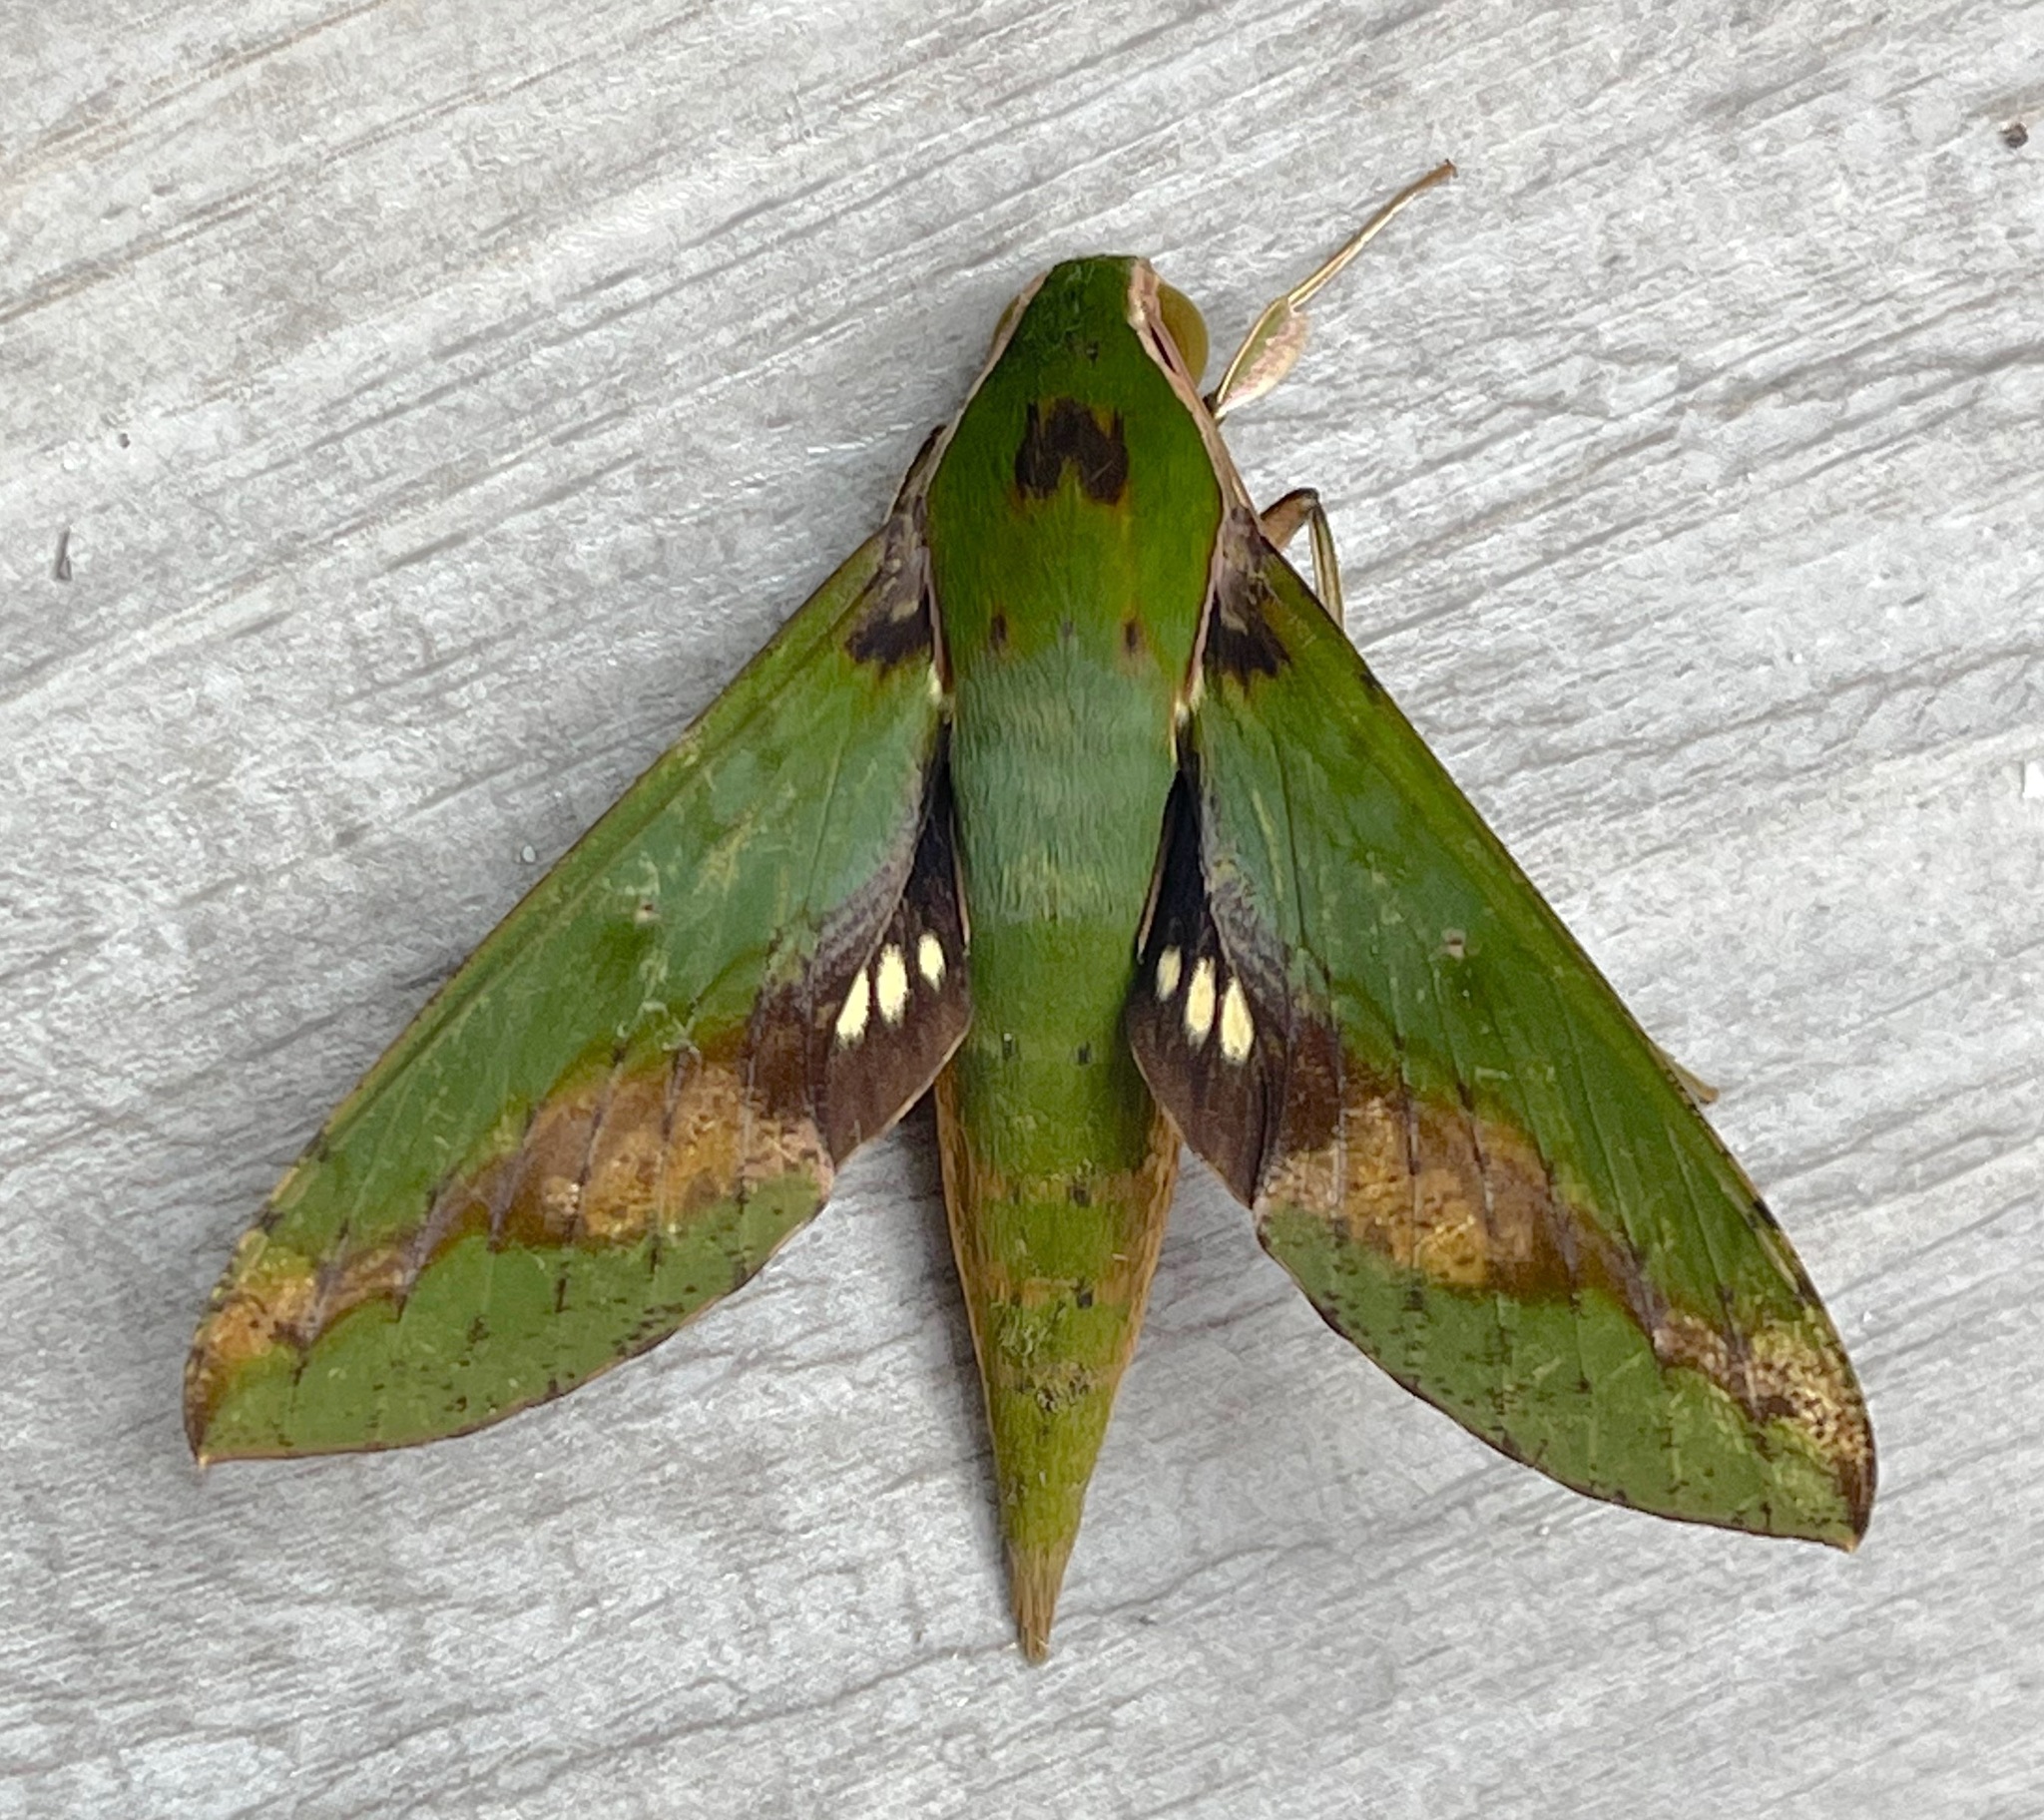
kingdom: Animalia
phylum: Arthropoda
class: Insecta
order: Lepidoptera
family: Sphingidae
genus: Xylophanes
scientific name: Xylophanes chiron
